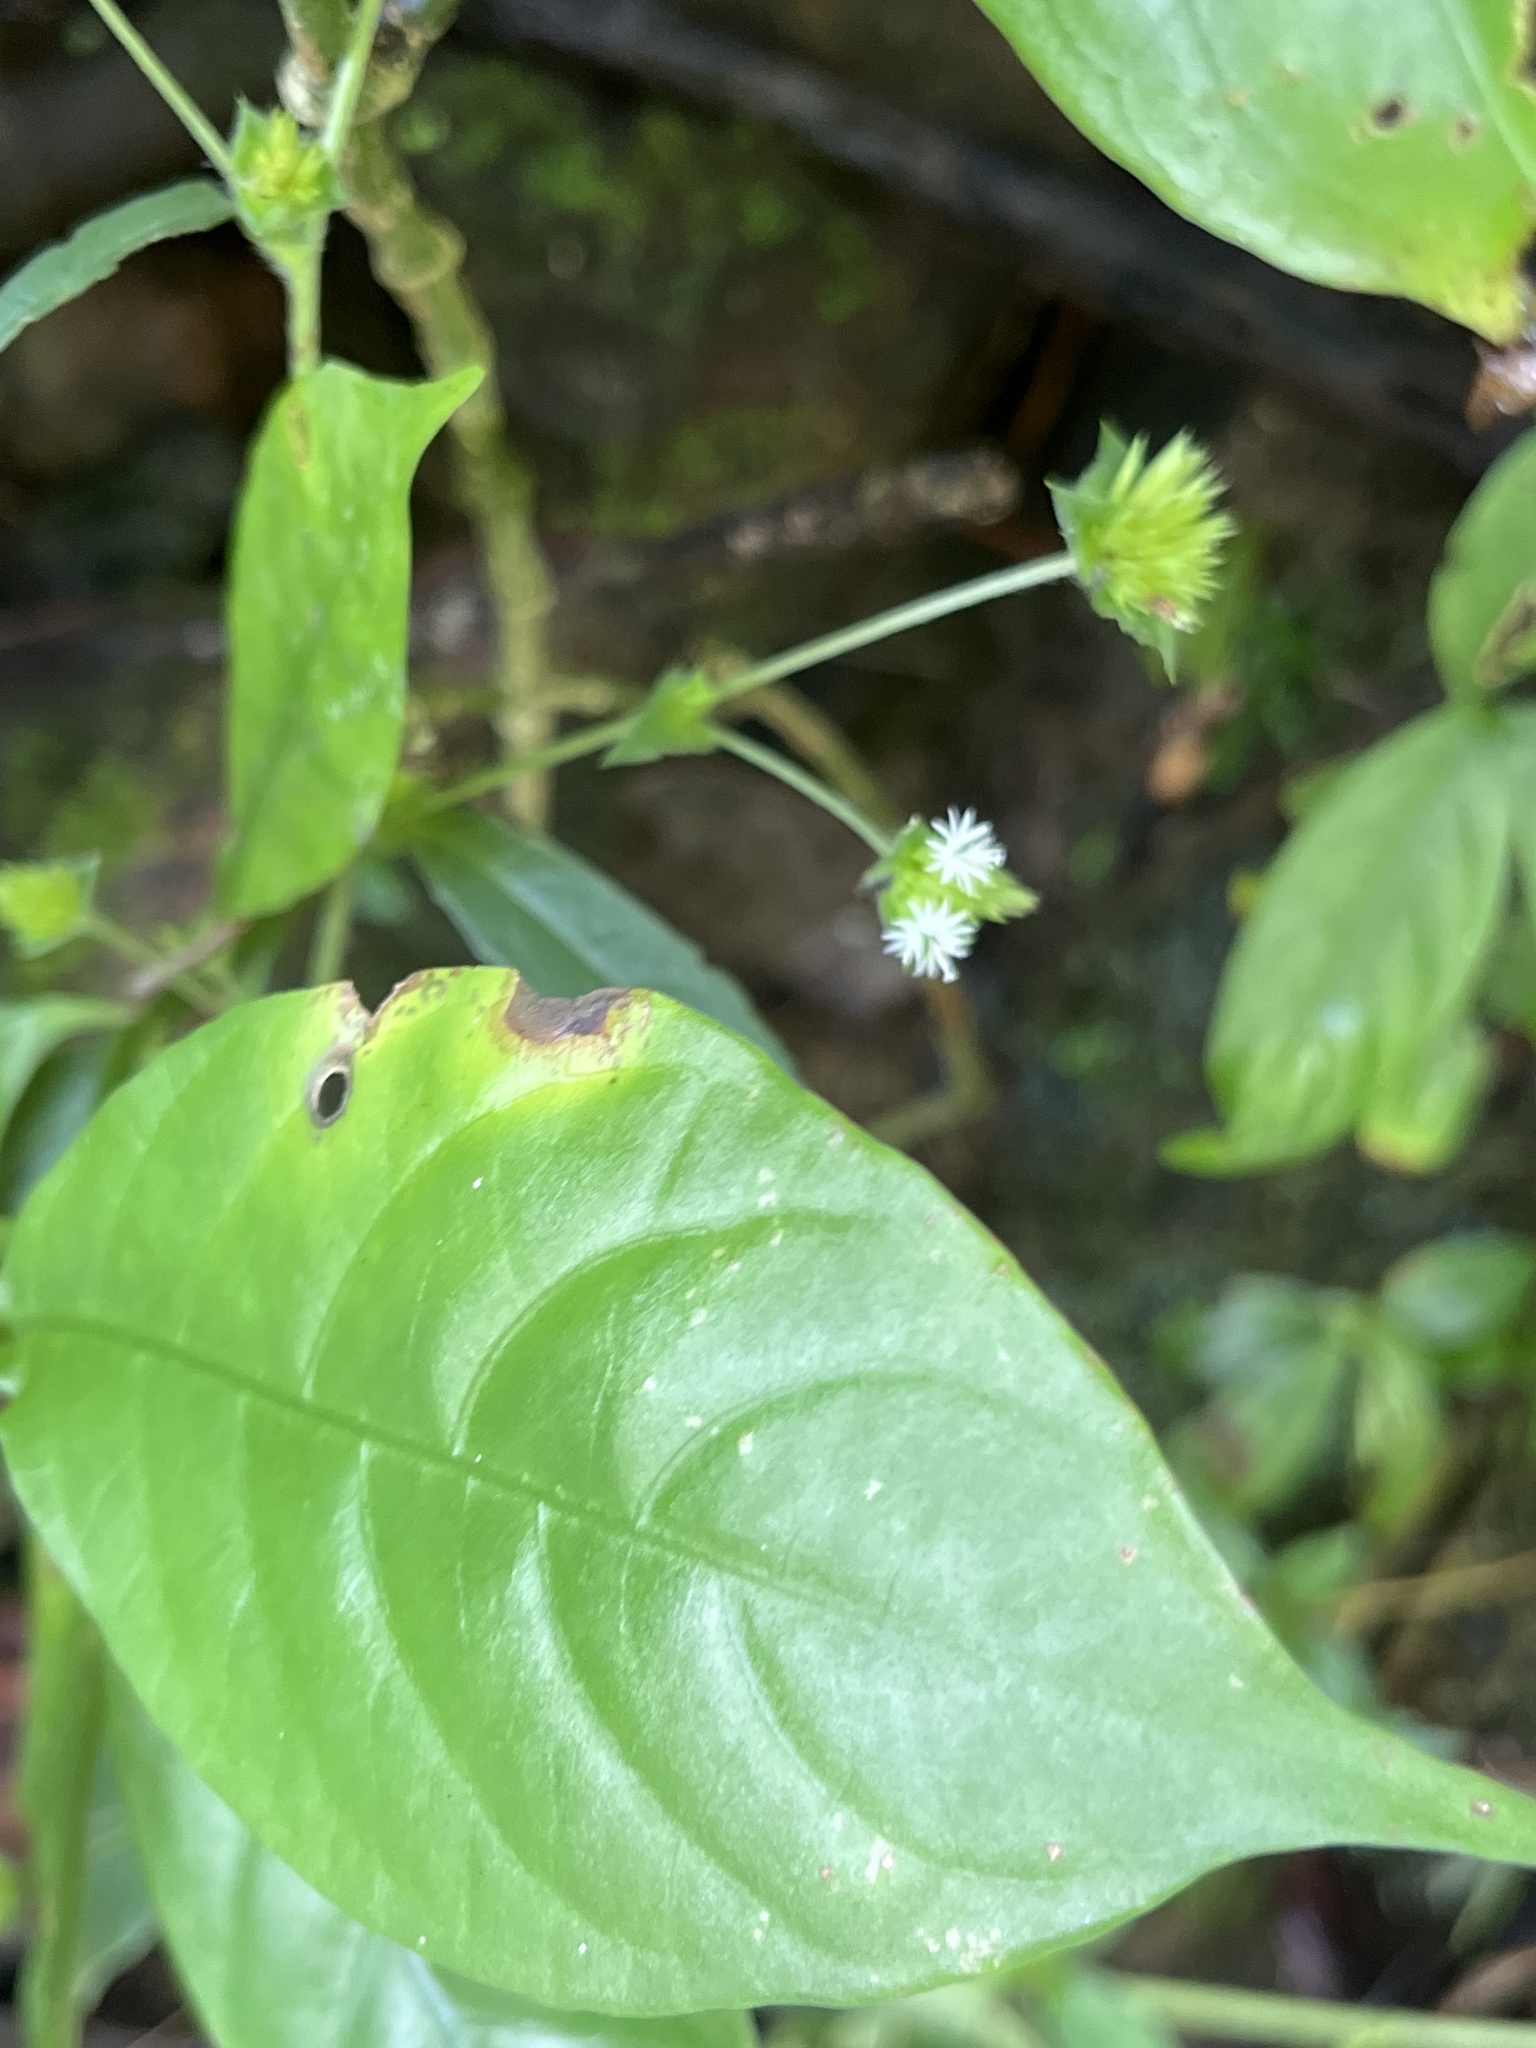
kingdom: Plantae
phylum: Tracheophyta
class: Magnoliopsida
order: Asterales
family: Asteraceae
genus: Elephantopus
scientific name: Elephantopus mollis
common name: Soft elephantsfoot
